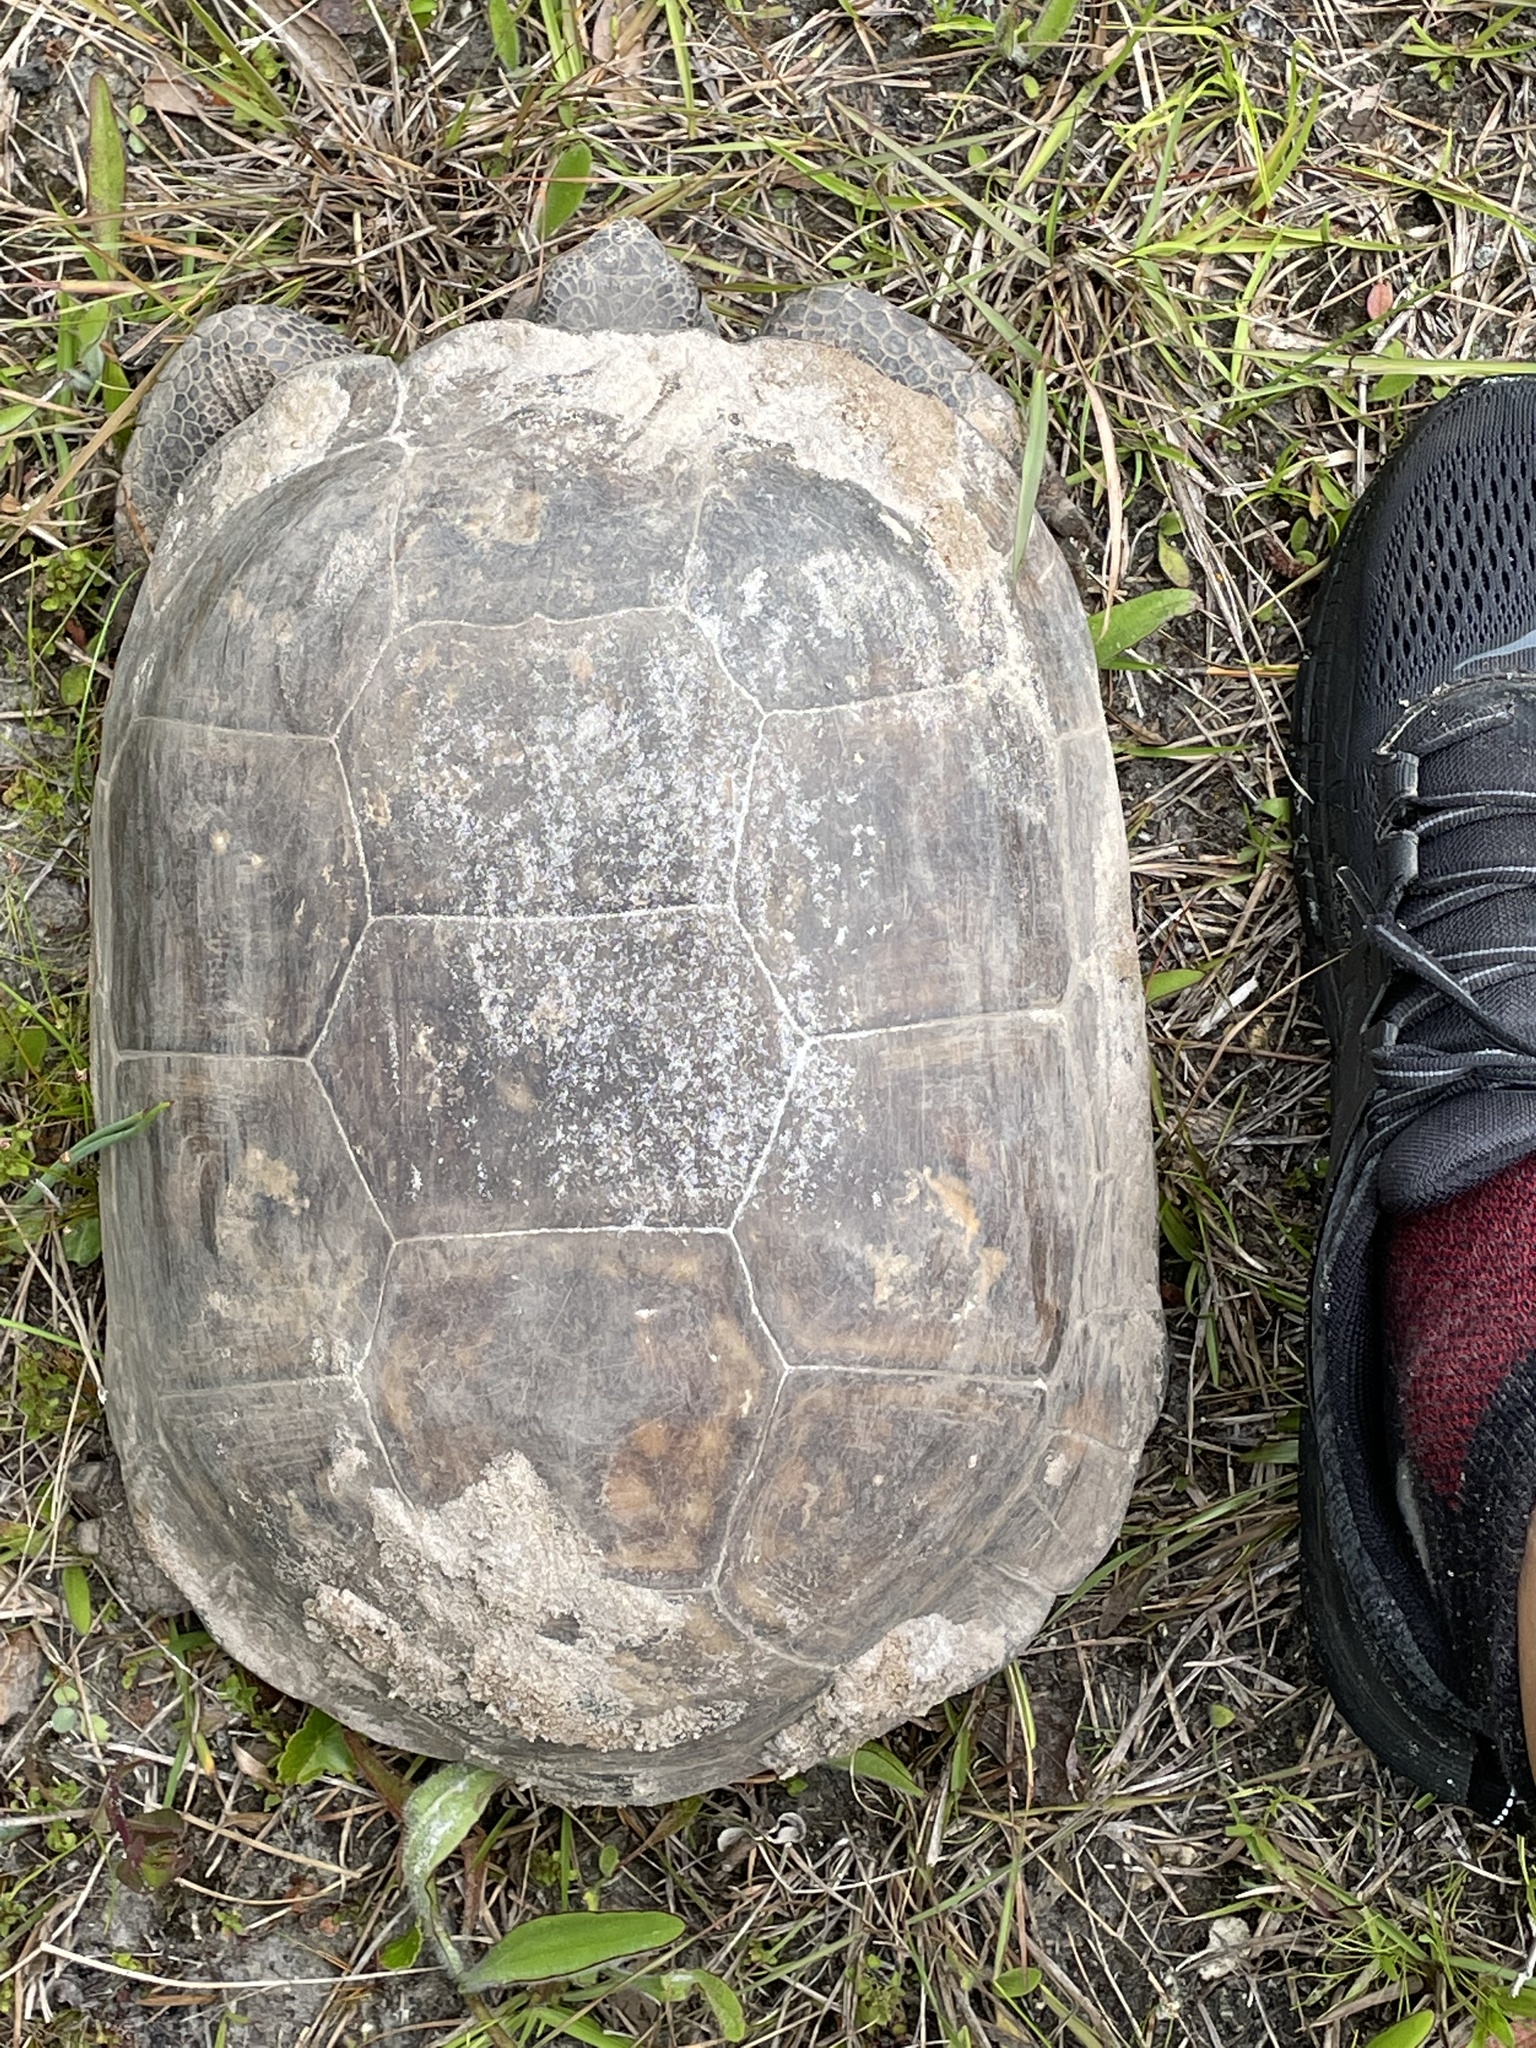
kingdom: Animalia
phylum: Chordata
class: Testudines
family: Testudinidae
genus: Gopherus
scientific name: Gopherus polyphemus
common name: Florida gopher tortoise
